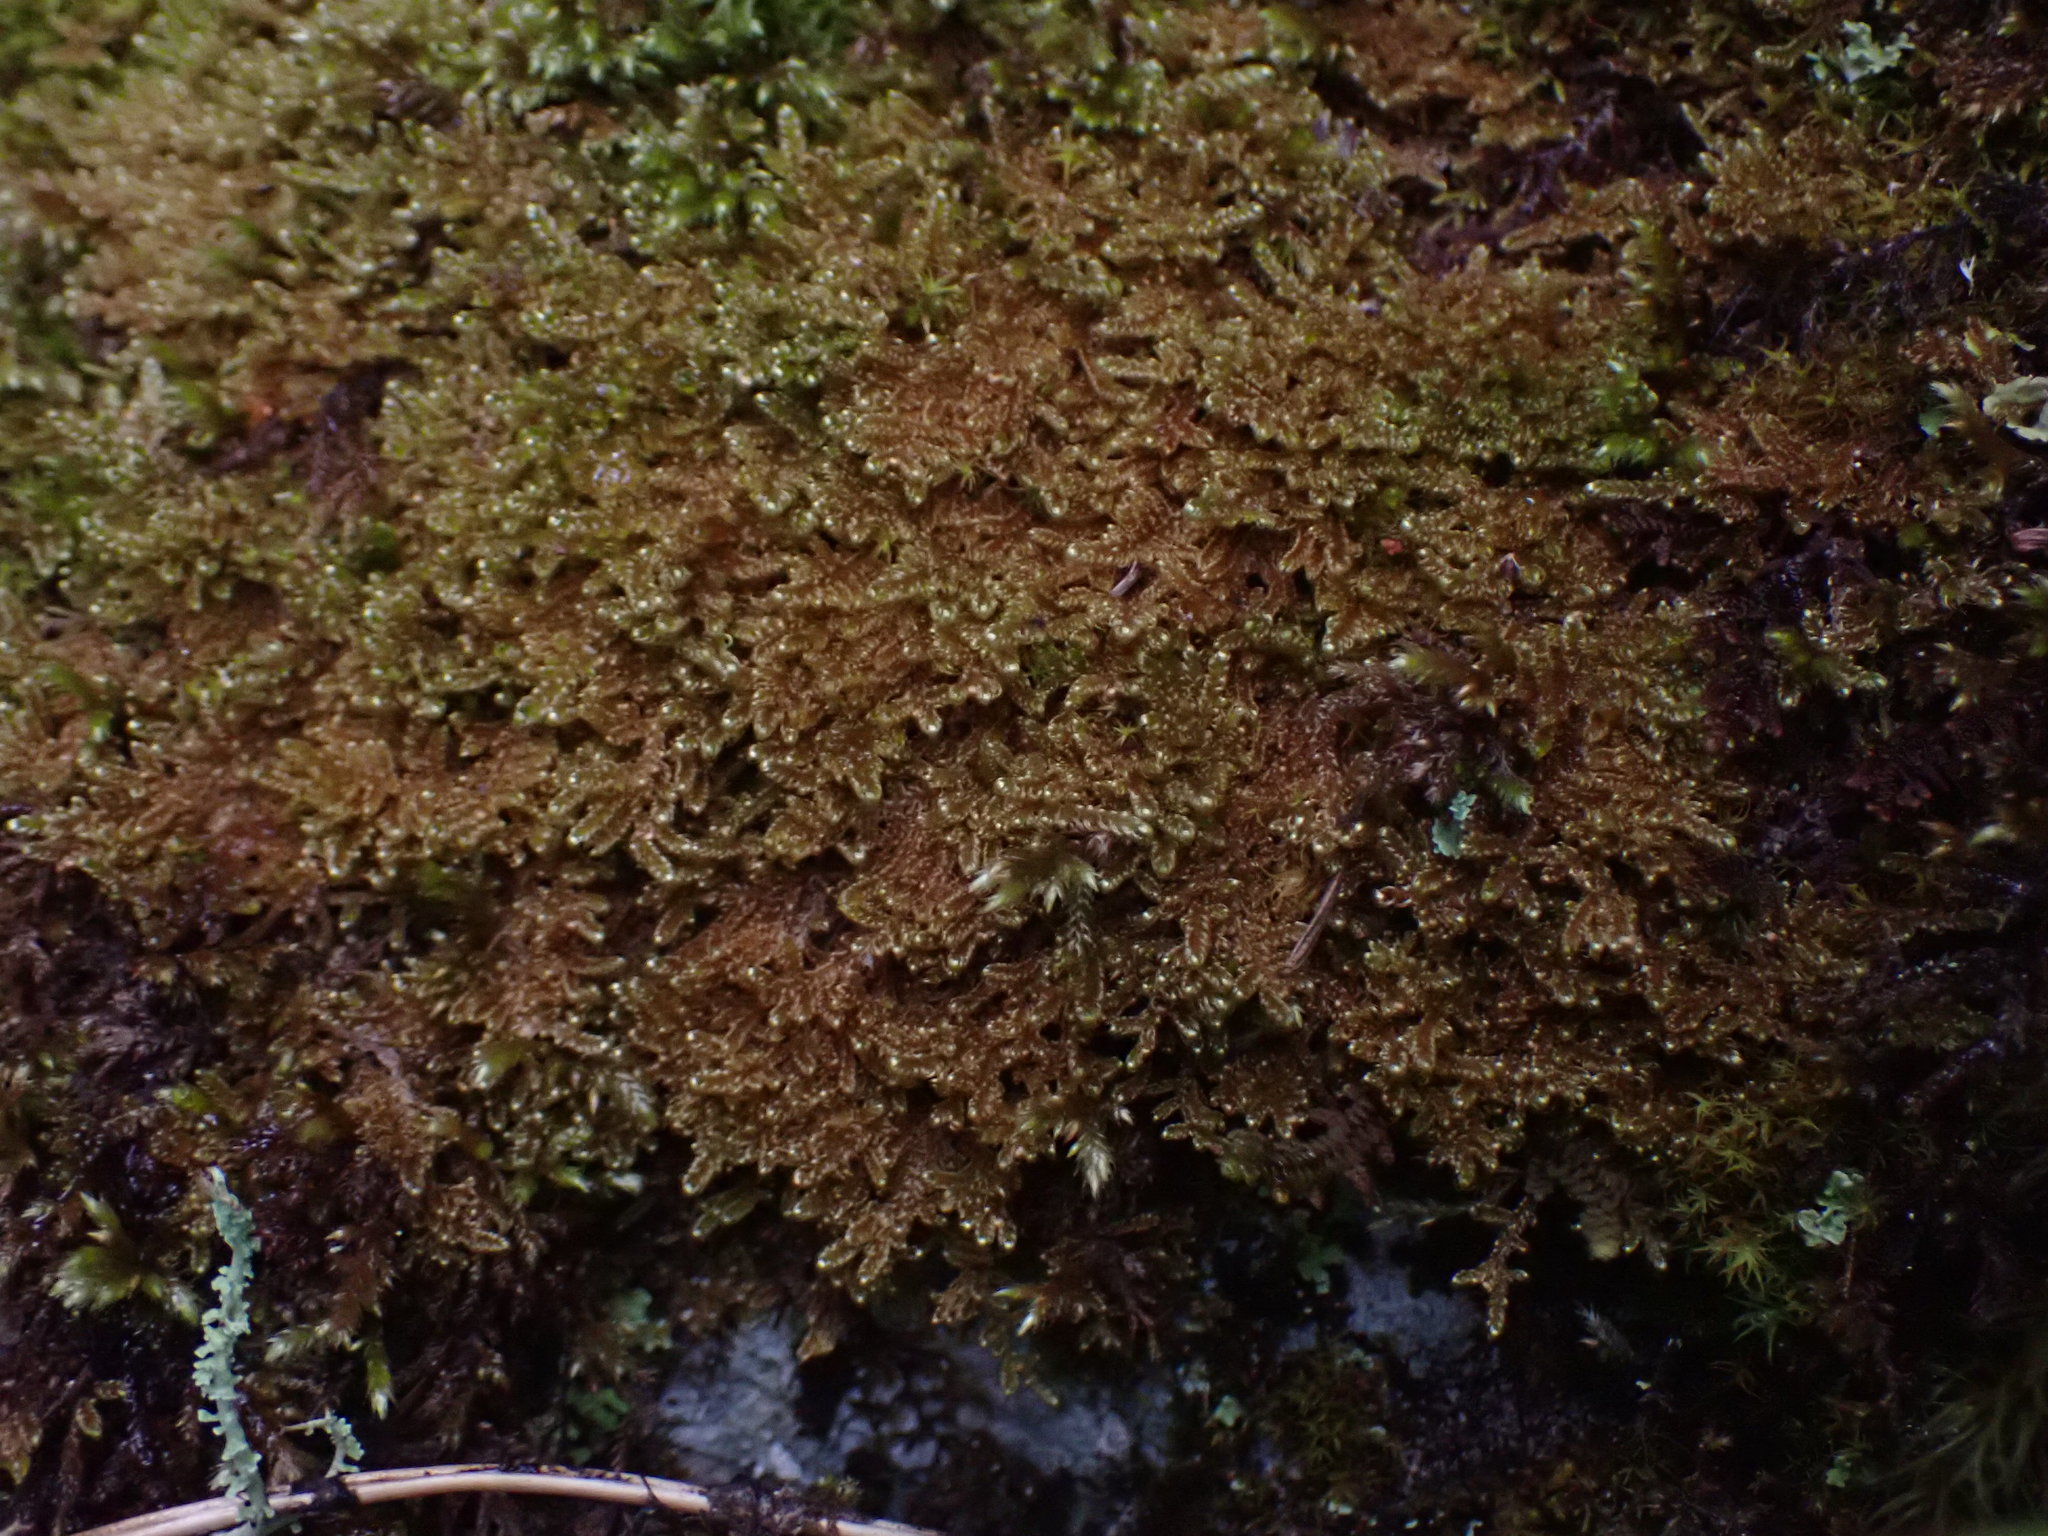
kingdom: Plantae
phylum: Bryophyta
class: Bryopsida
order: Hypnales
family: Stereodontaceae
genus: Stereodon
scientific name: Stereodon subimponens
